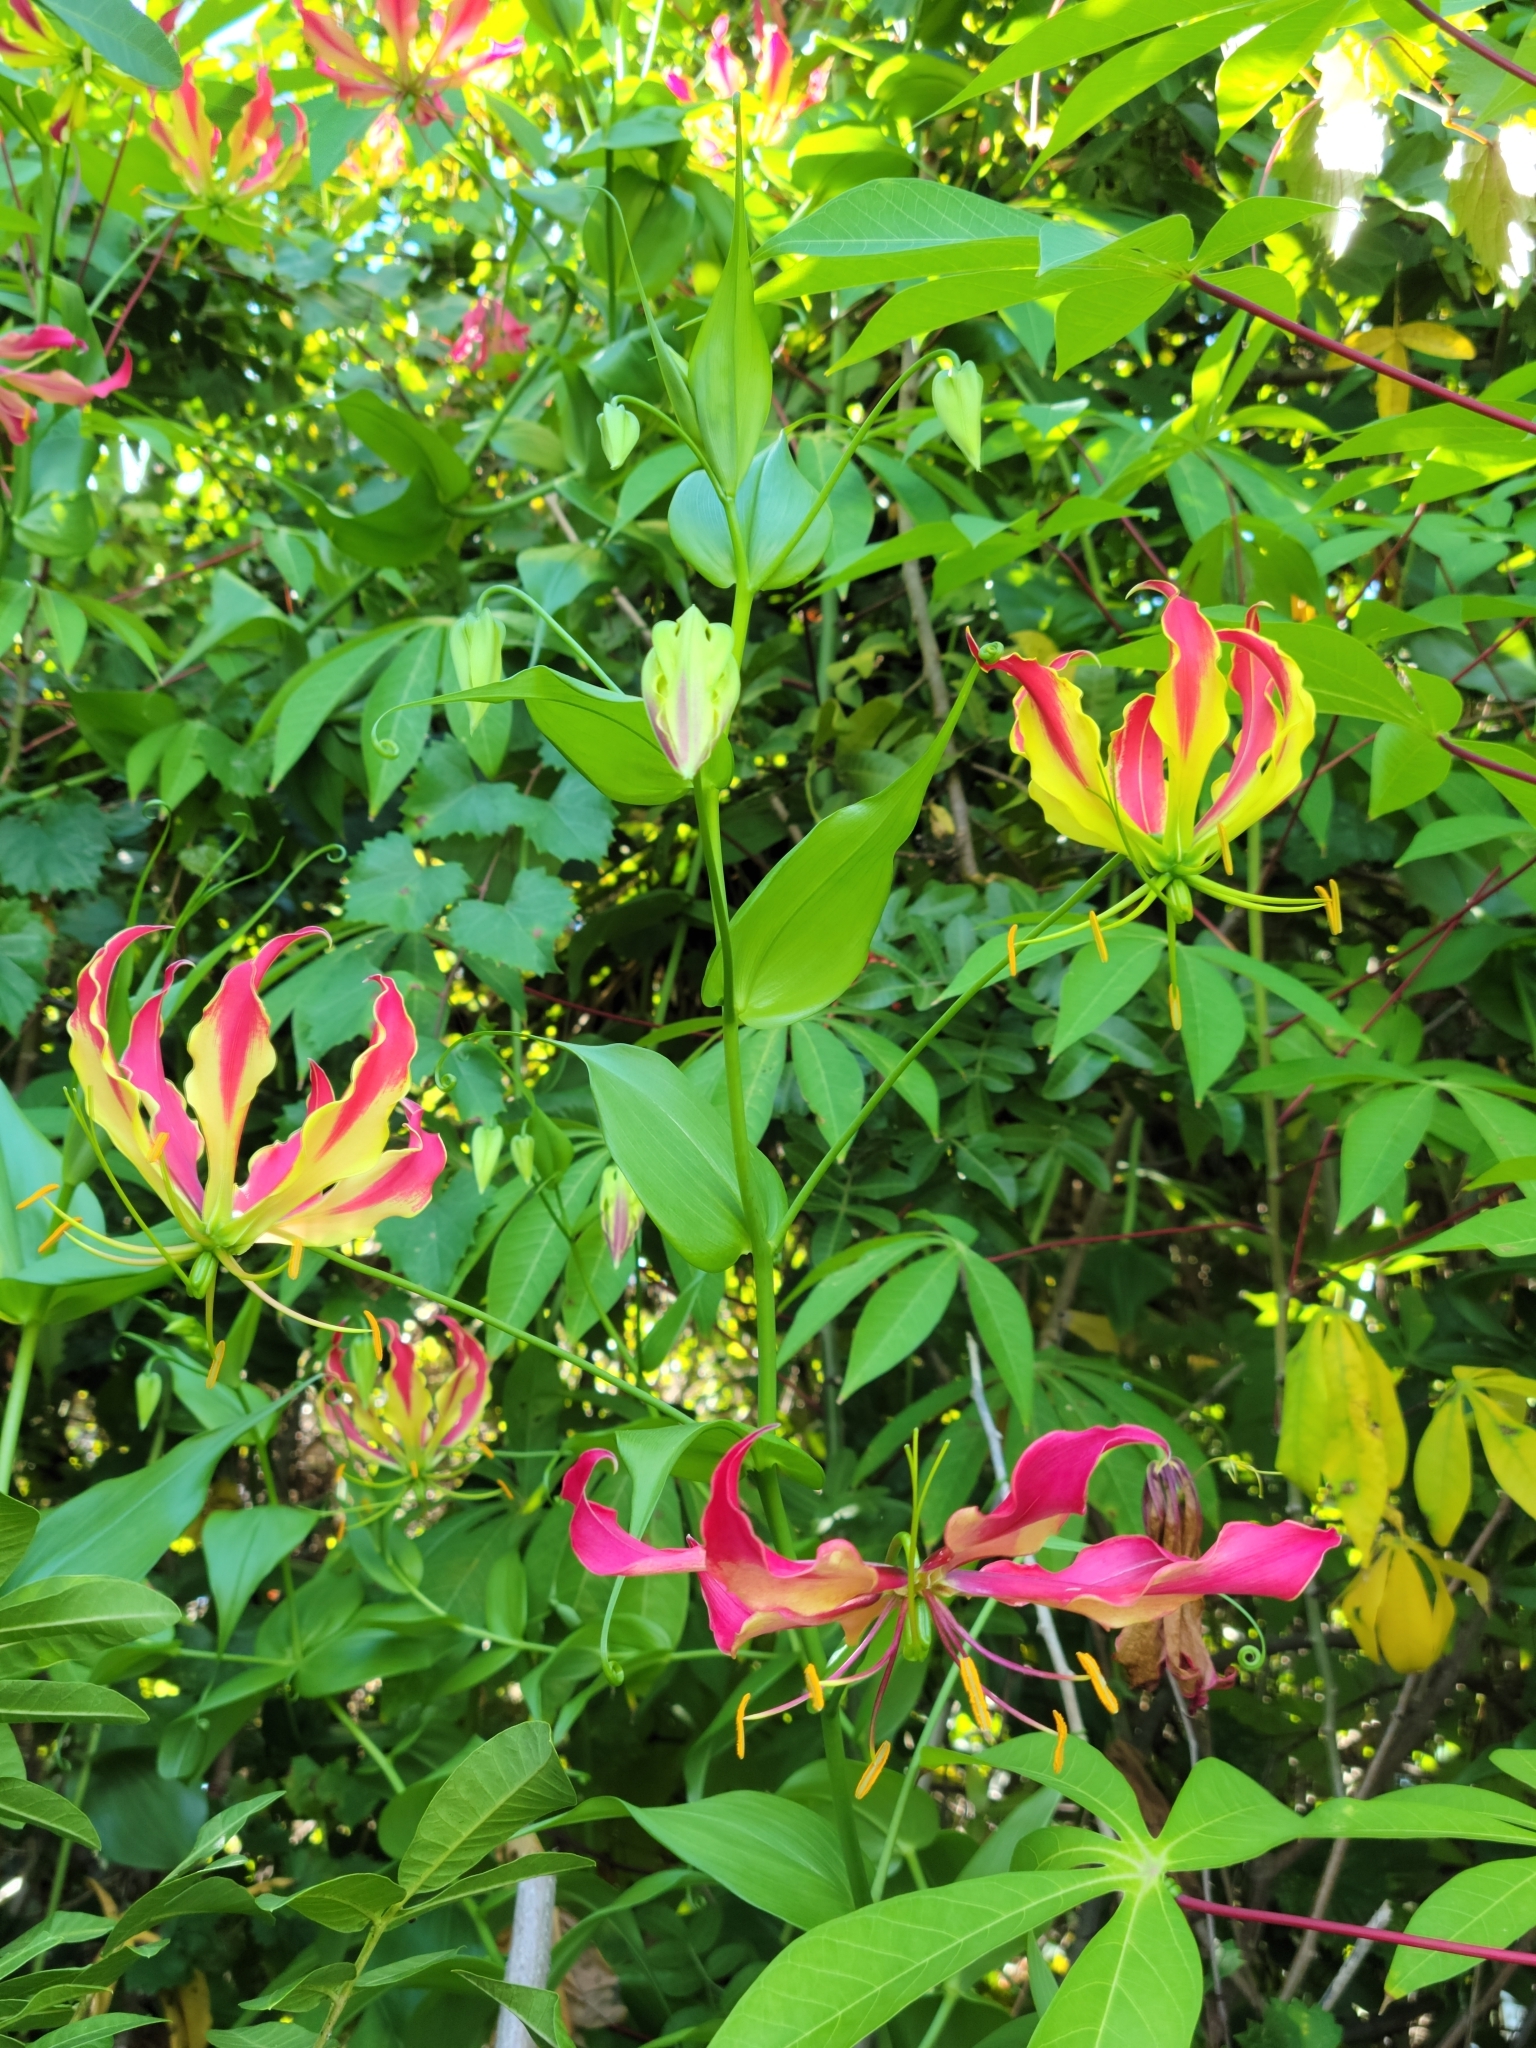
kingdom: Plantae
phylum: Tracheophyta
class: Liliopsida
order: Liliales
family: Colchicaceae
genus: Gloriosa
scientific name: Gloriosa superba
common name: Flame lily
